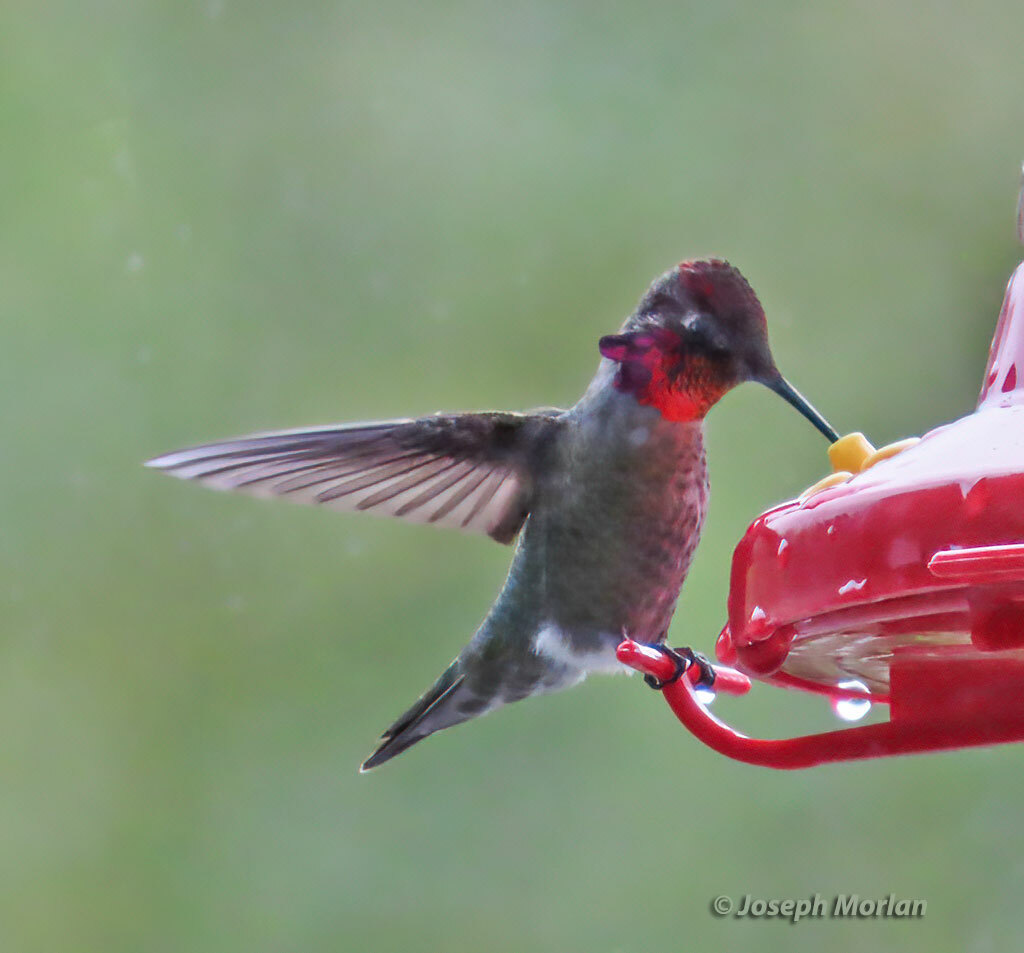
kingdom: Animalia
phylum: Chordata
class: Aves
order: Apodiformes
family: Trochilidae
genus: Calypte
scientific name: Calypte anna
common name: Anna's hummingbird
